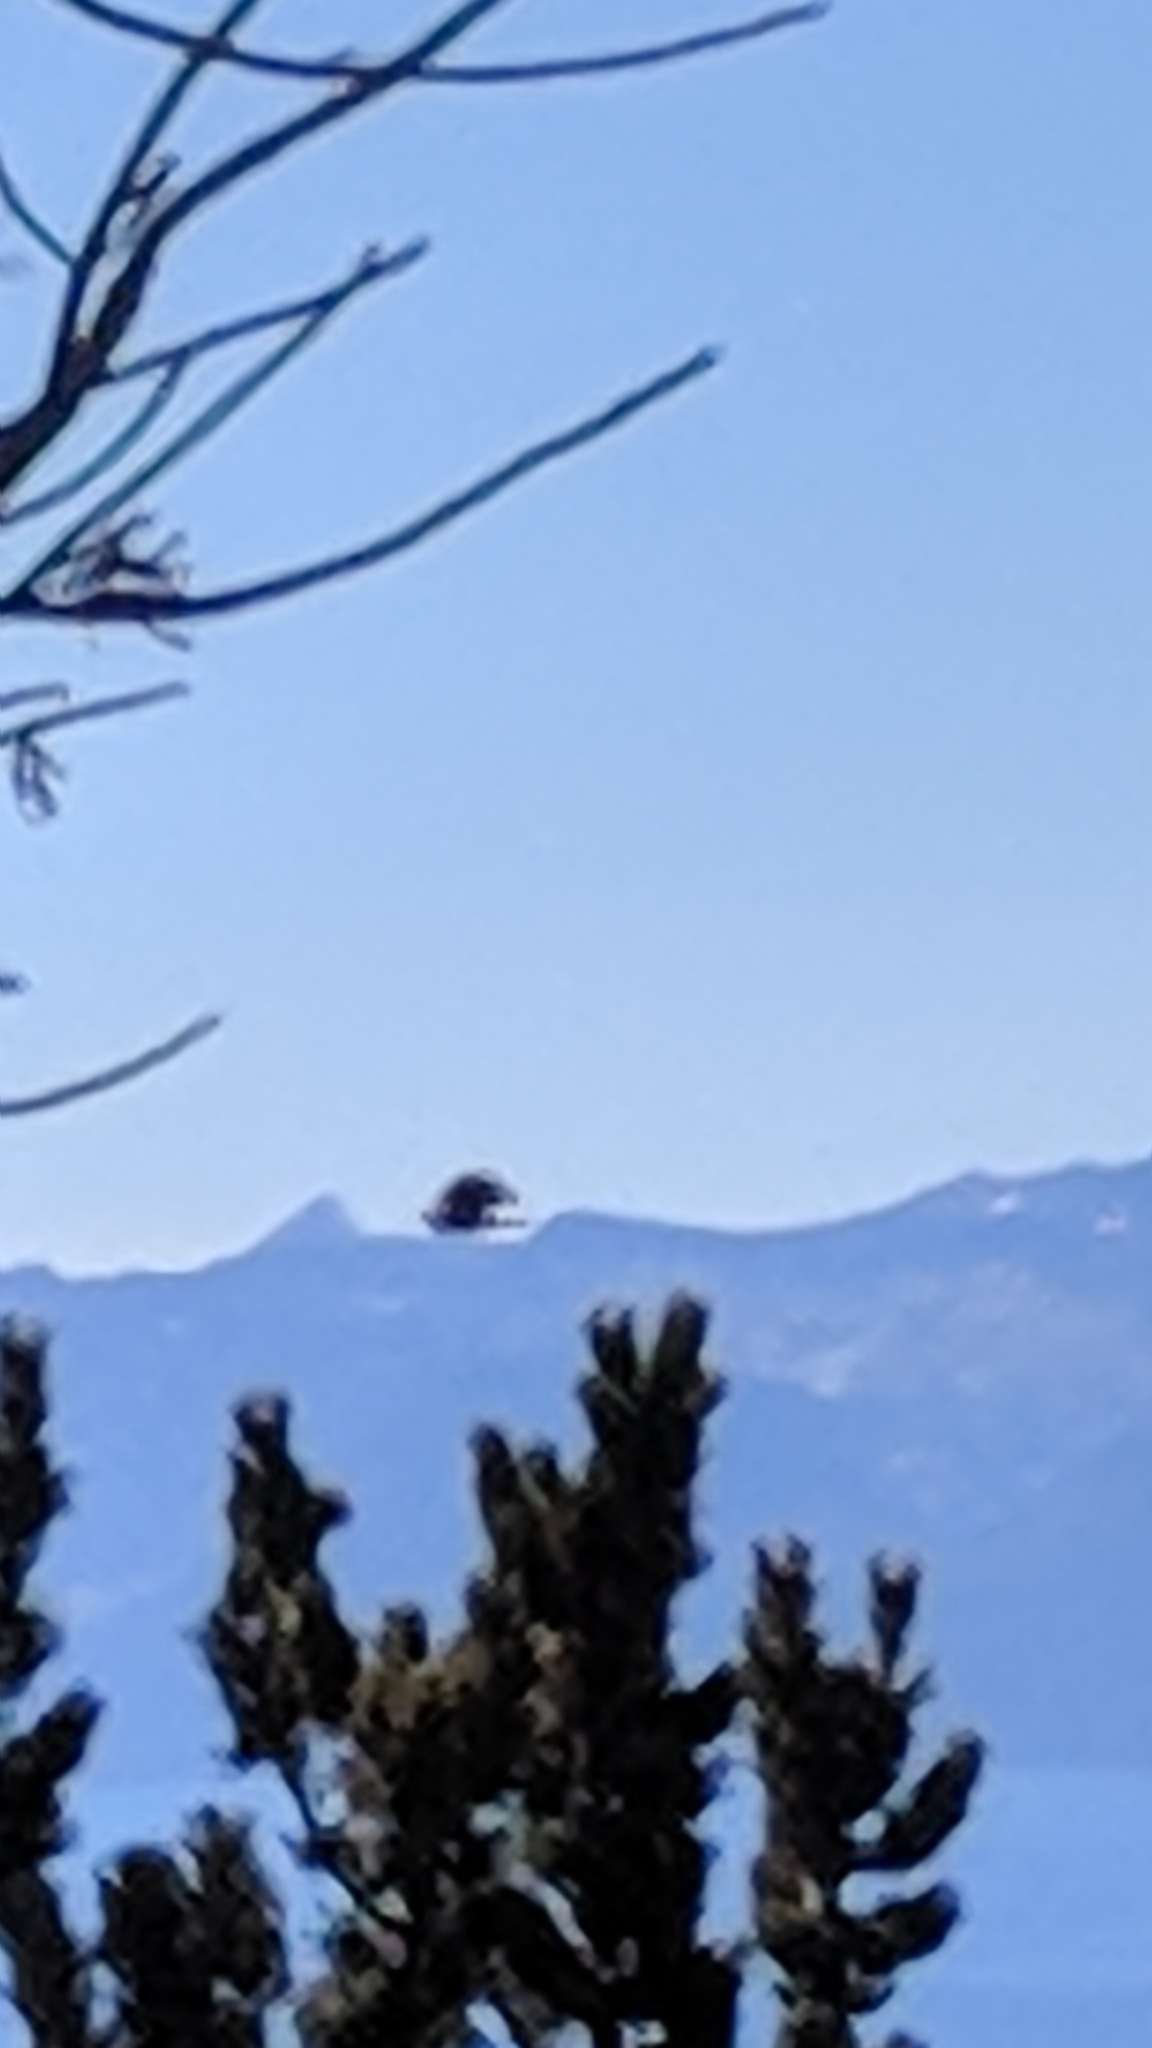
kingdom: Animalia
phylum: Chordata
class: Aves
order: Passeriformes
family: Corvidae
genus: Pica
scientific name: Pica hudsonia
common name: Black-billed magpie
